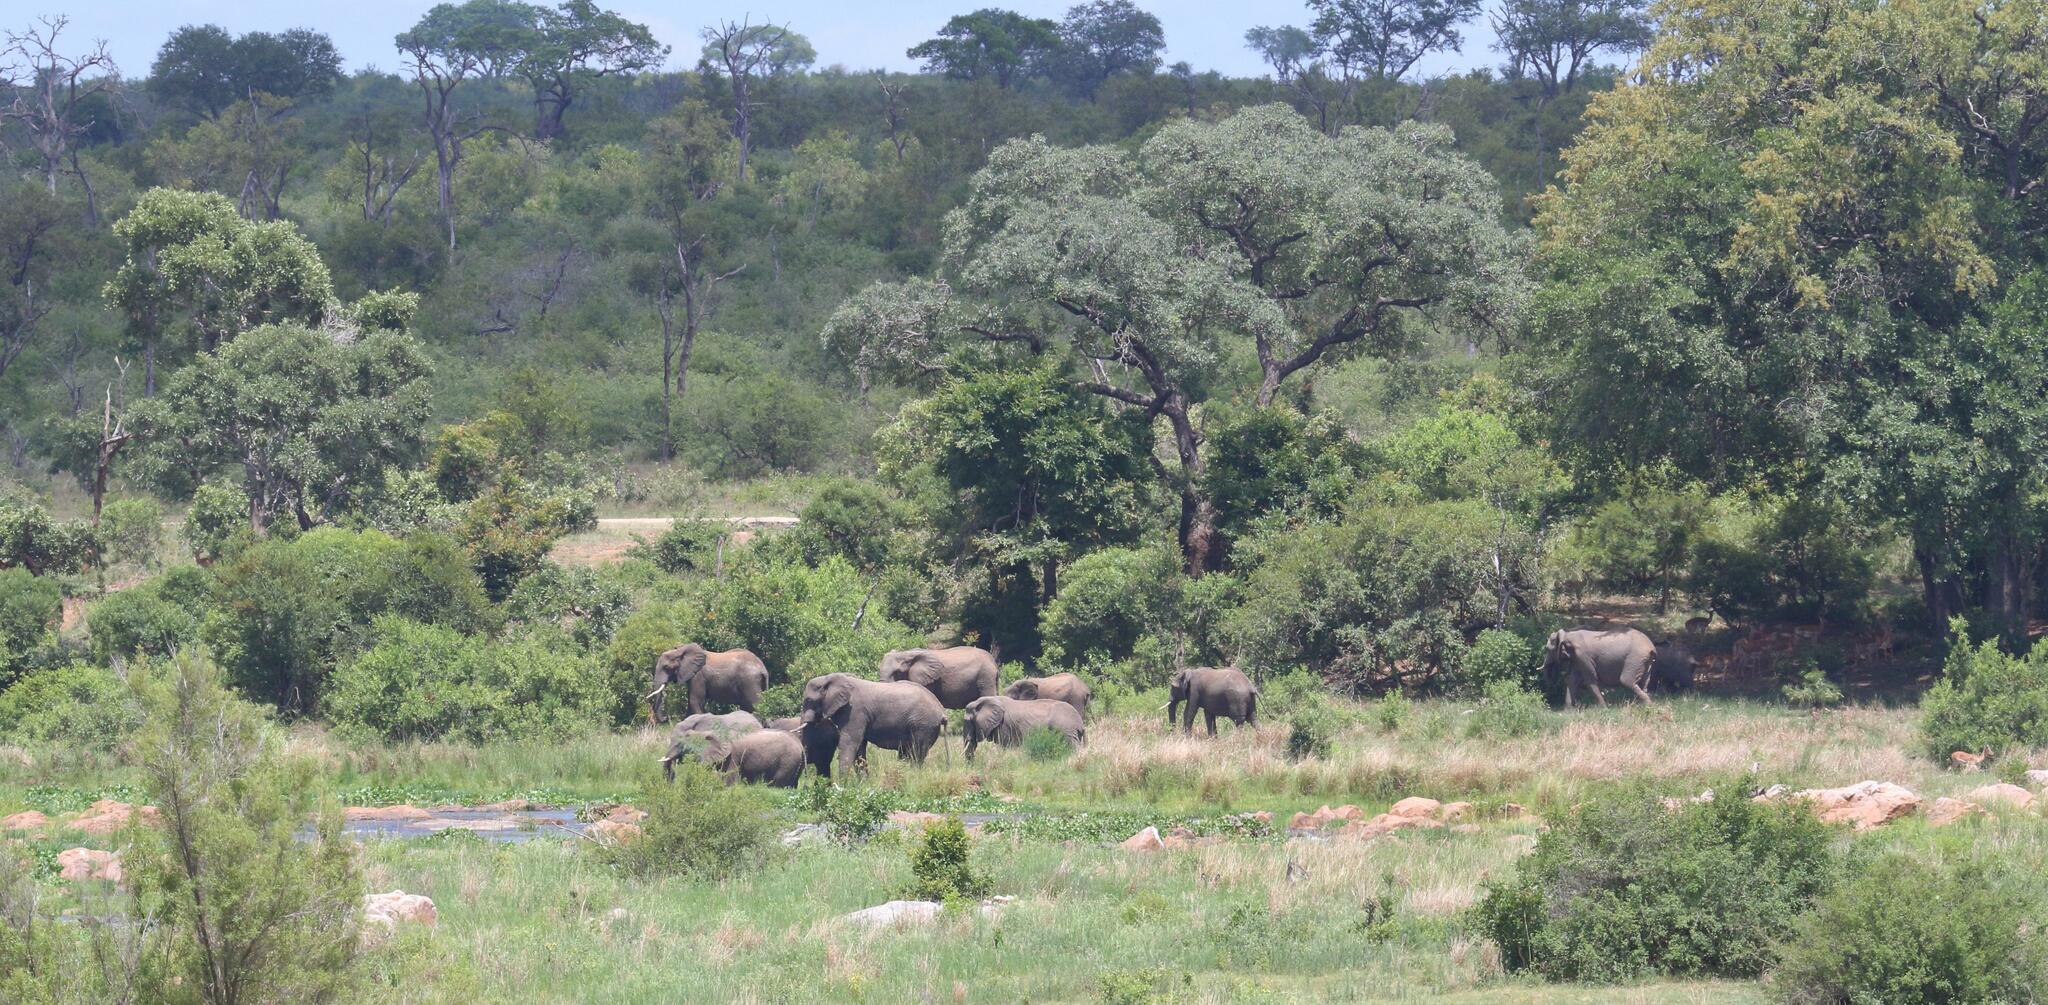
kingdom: Animalia
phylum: Chordata
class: Mammalia
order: Proboscidea
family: Elephantidae
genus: Loxodonta
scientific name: Loxodonta africana
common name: African elephant
